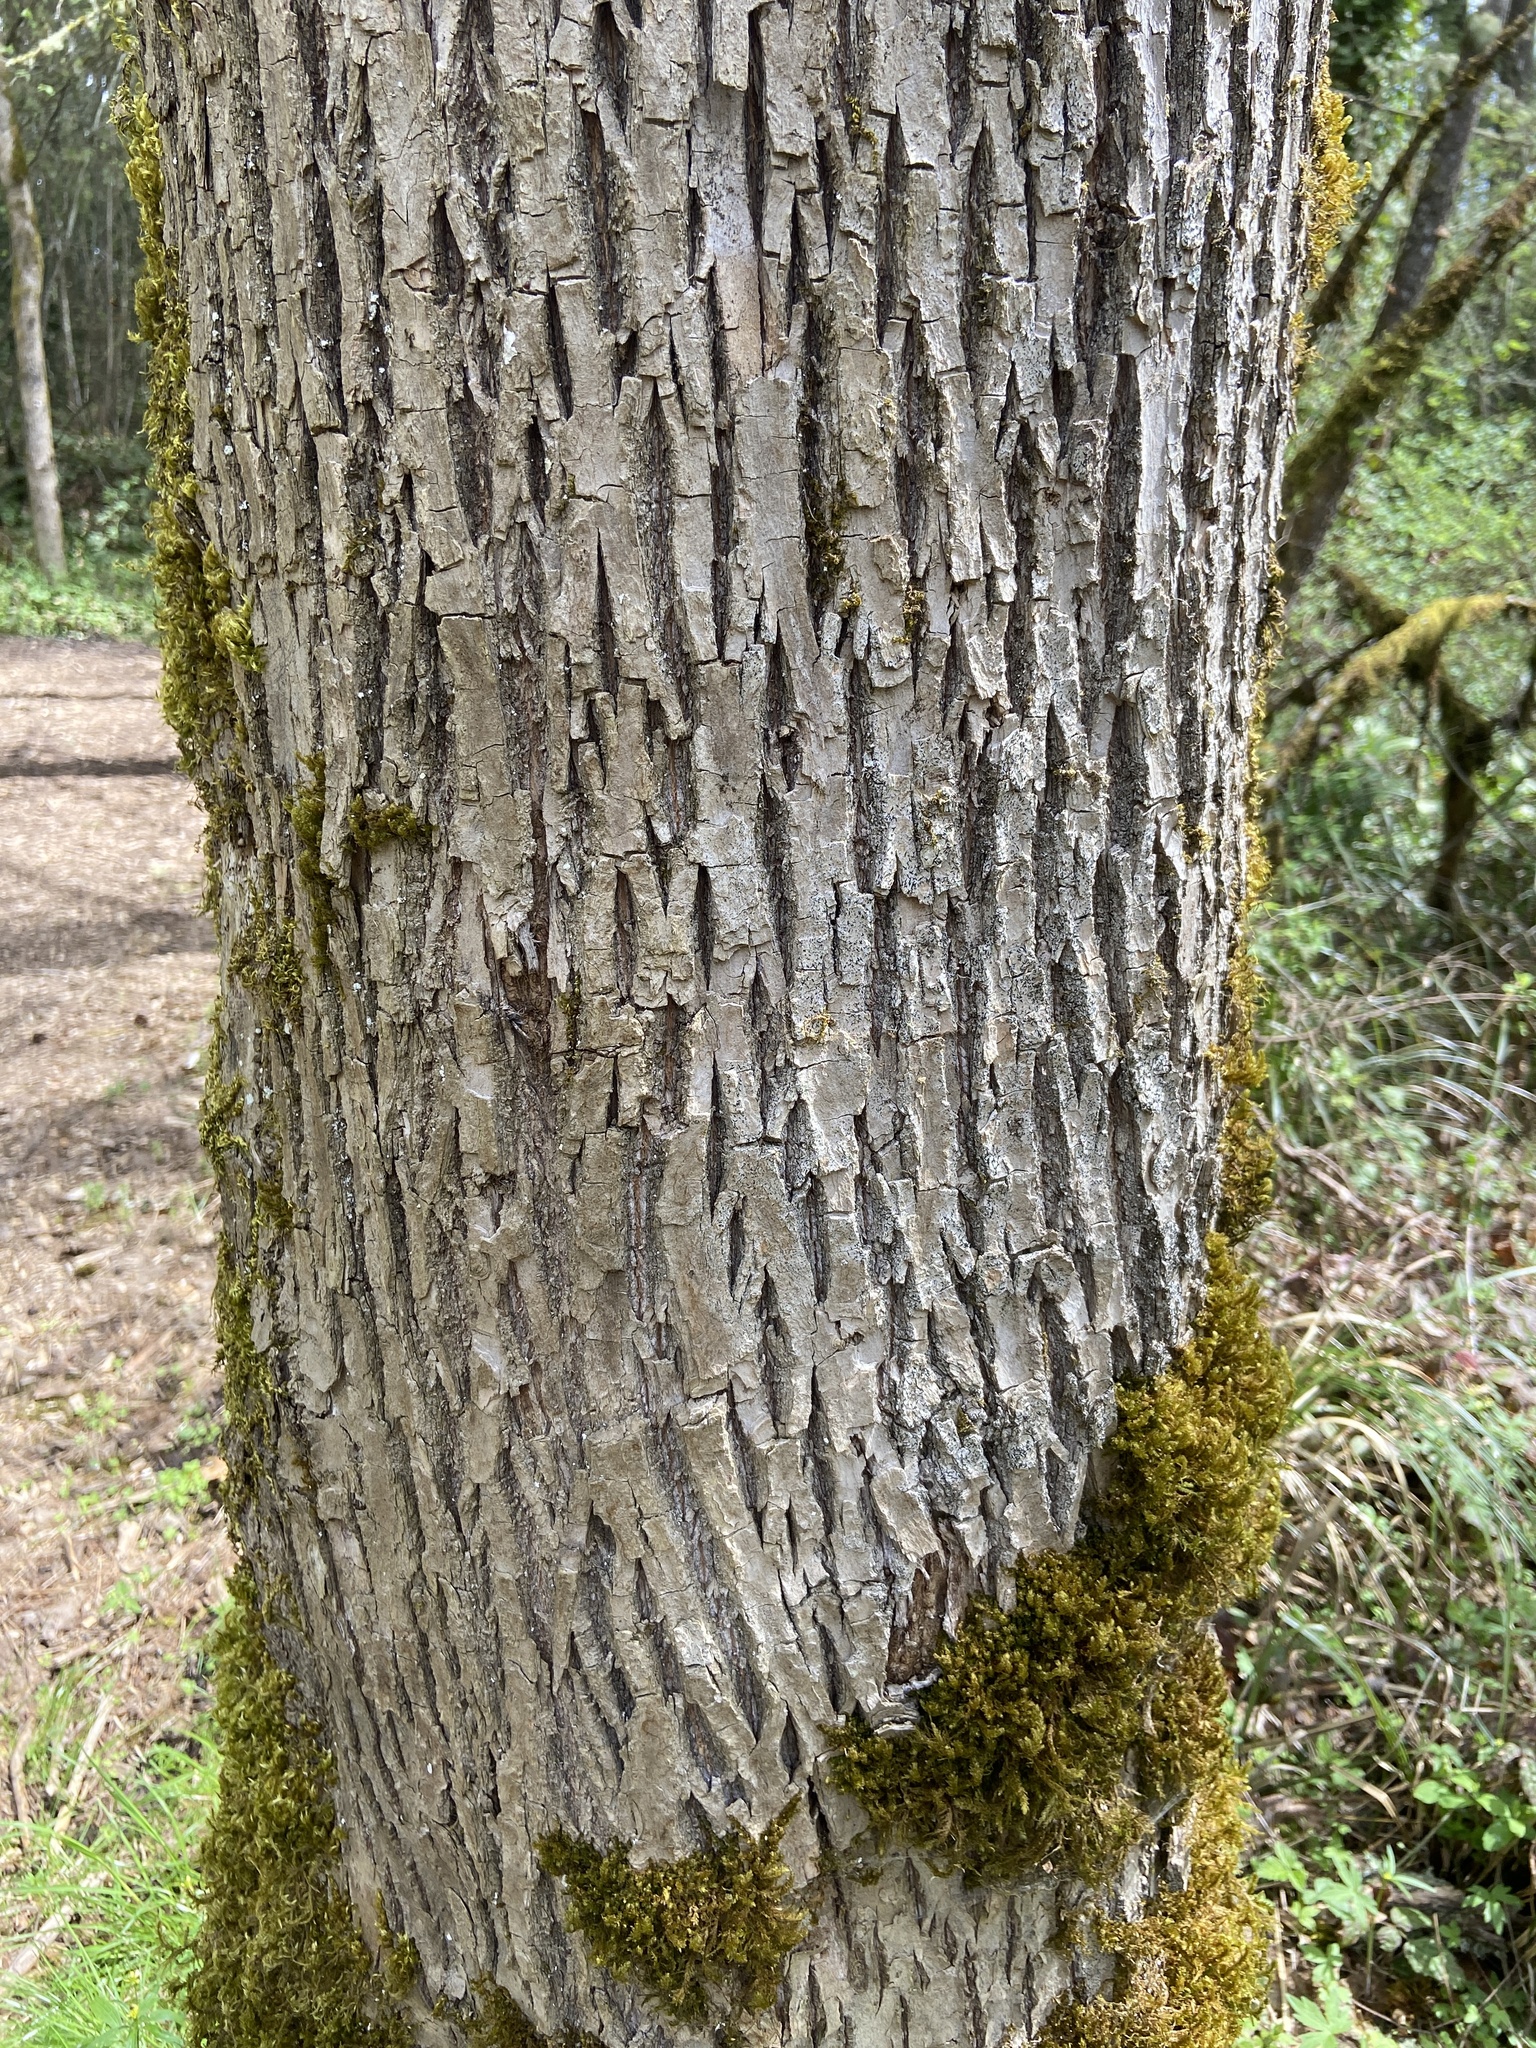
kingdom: Plantae
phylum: Tracheophyta
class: Magnoliopsida
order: Lamiales
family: Oleaceae
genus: Fraxinus
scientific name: Fraxinus latifolia
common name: Oregon ash
